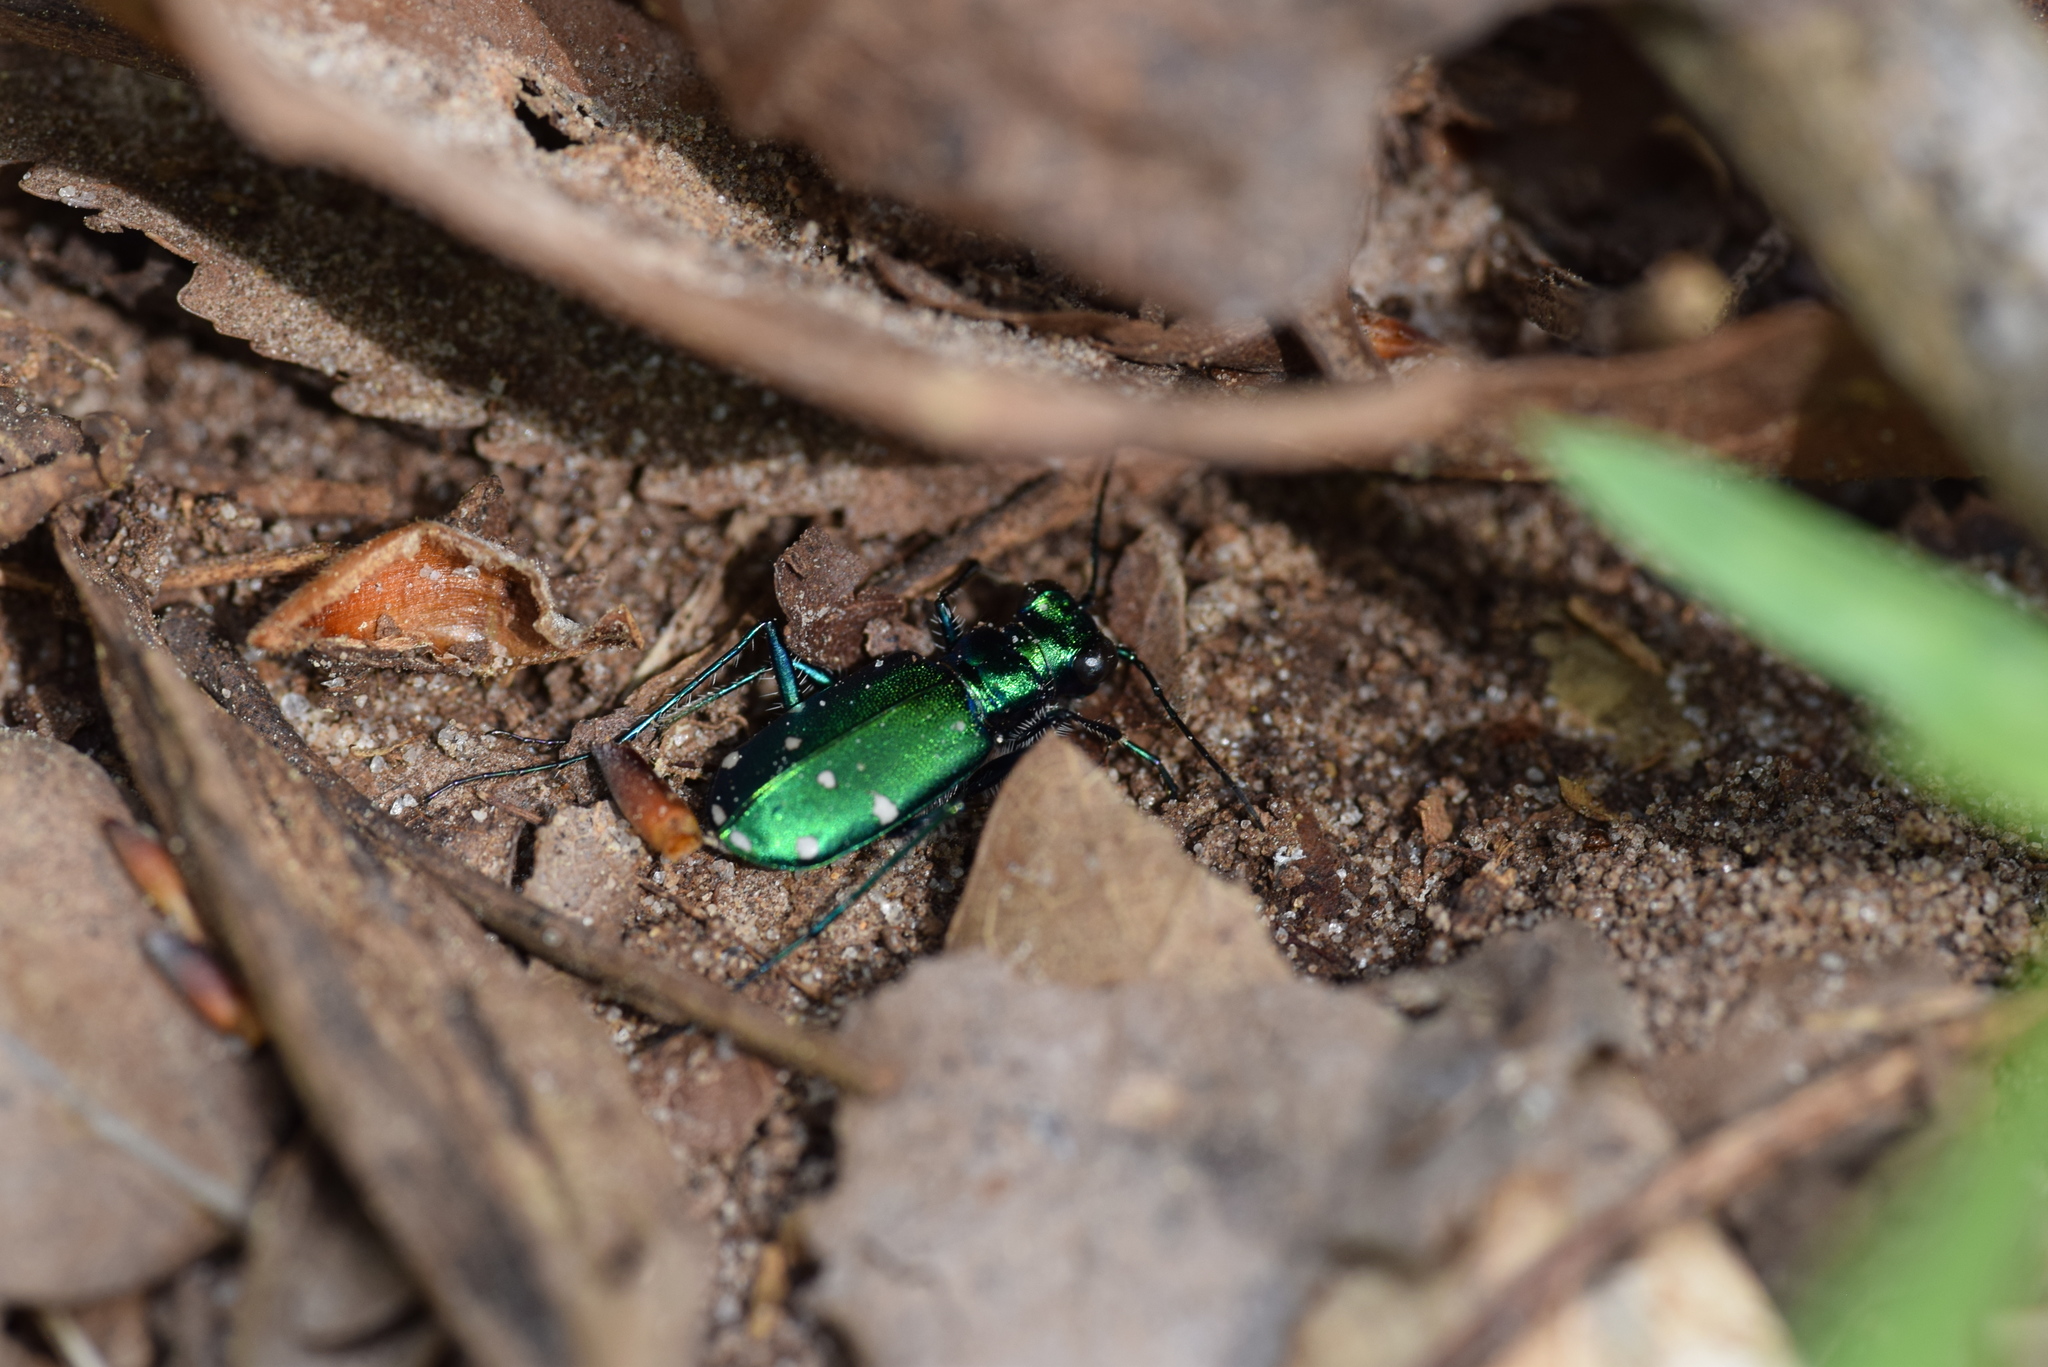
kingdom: Animalia
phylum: Arthropoda
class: Insecta
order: Coleoptera
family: Carabidae
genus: Cicindela
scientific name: Cicindela sexguttata
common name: Six-spotted tiger beetle
